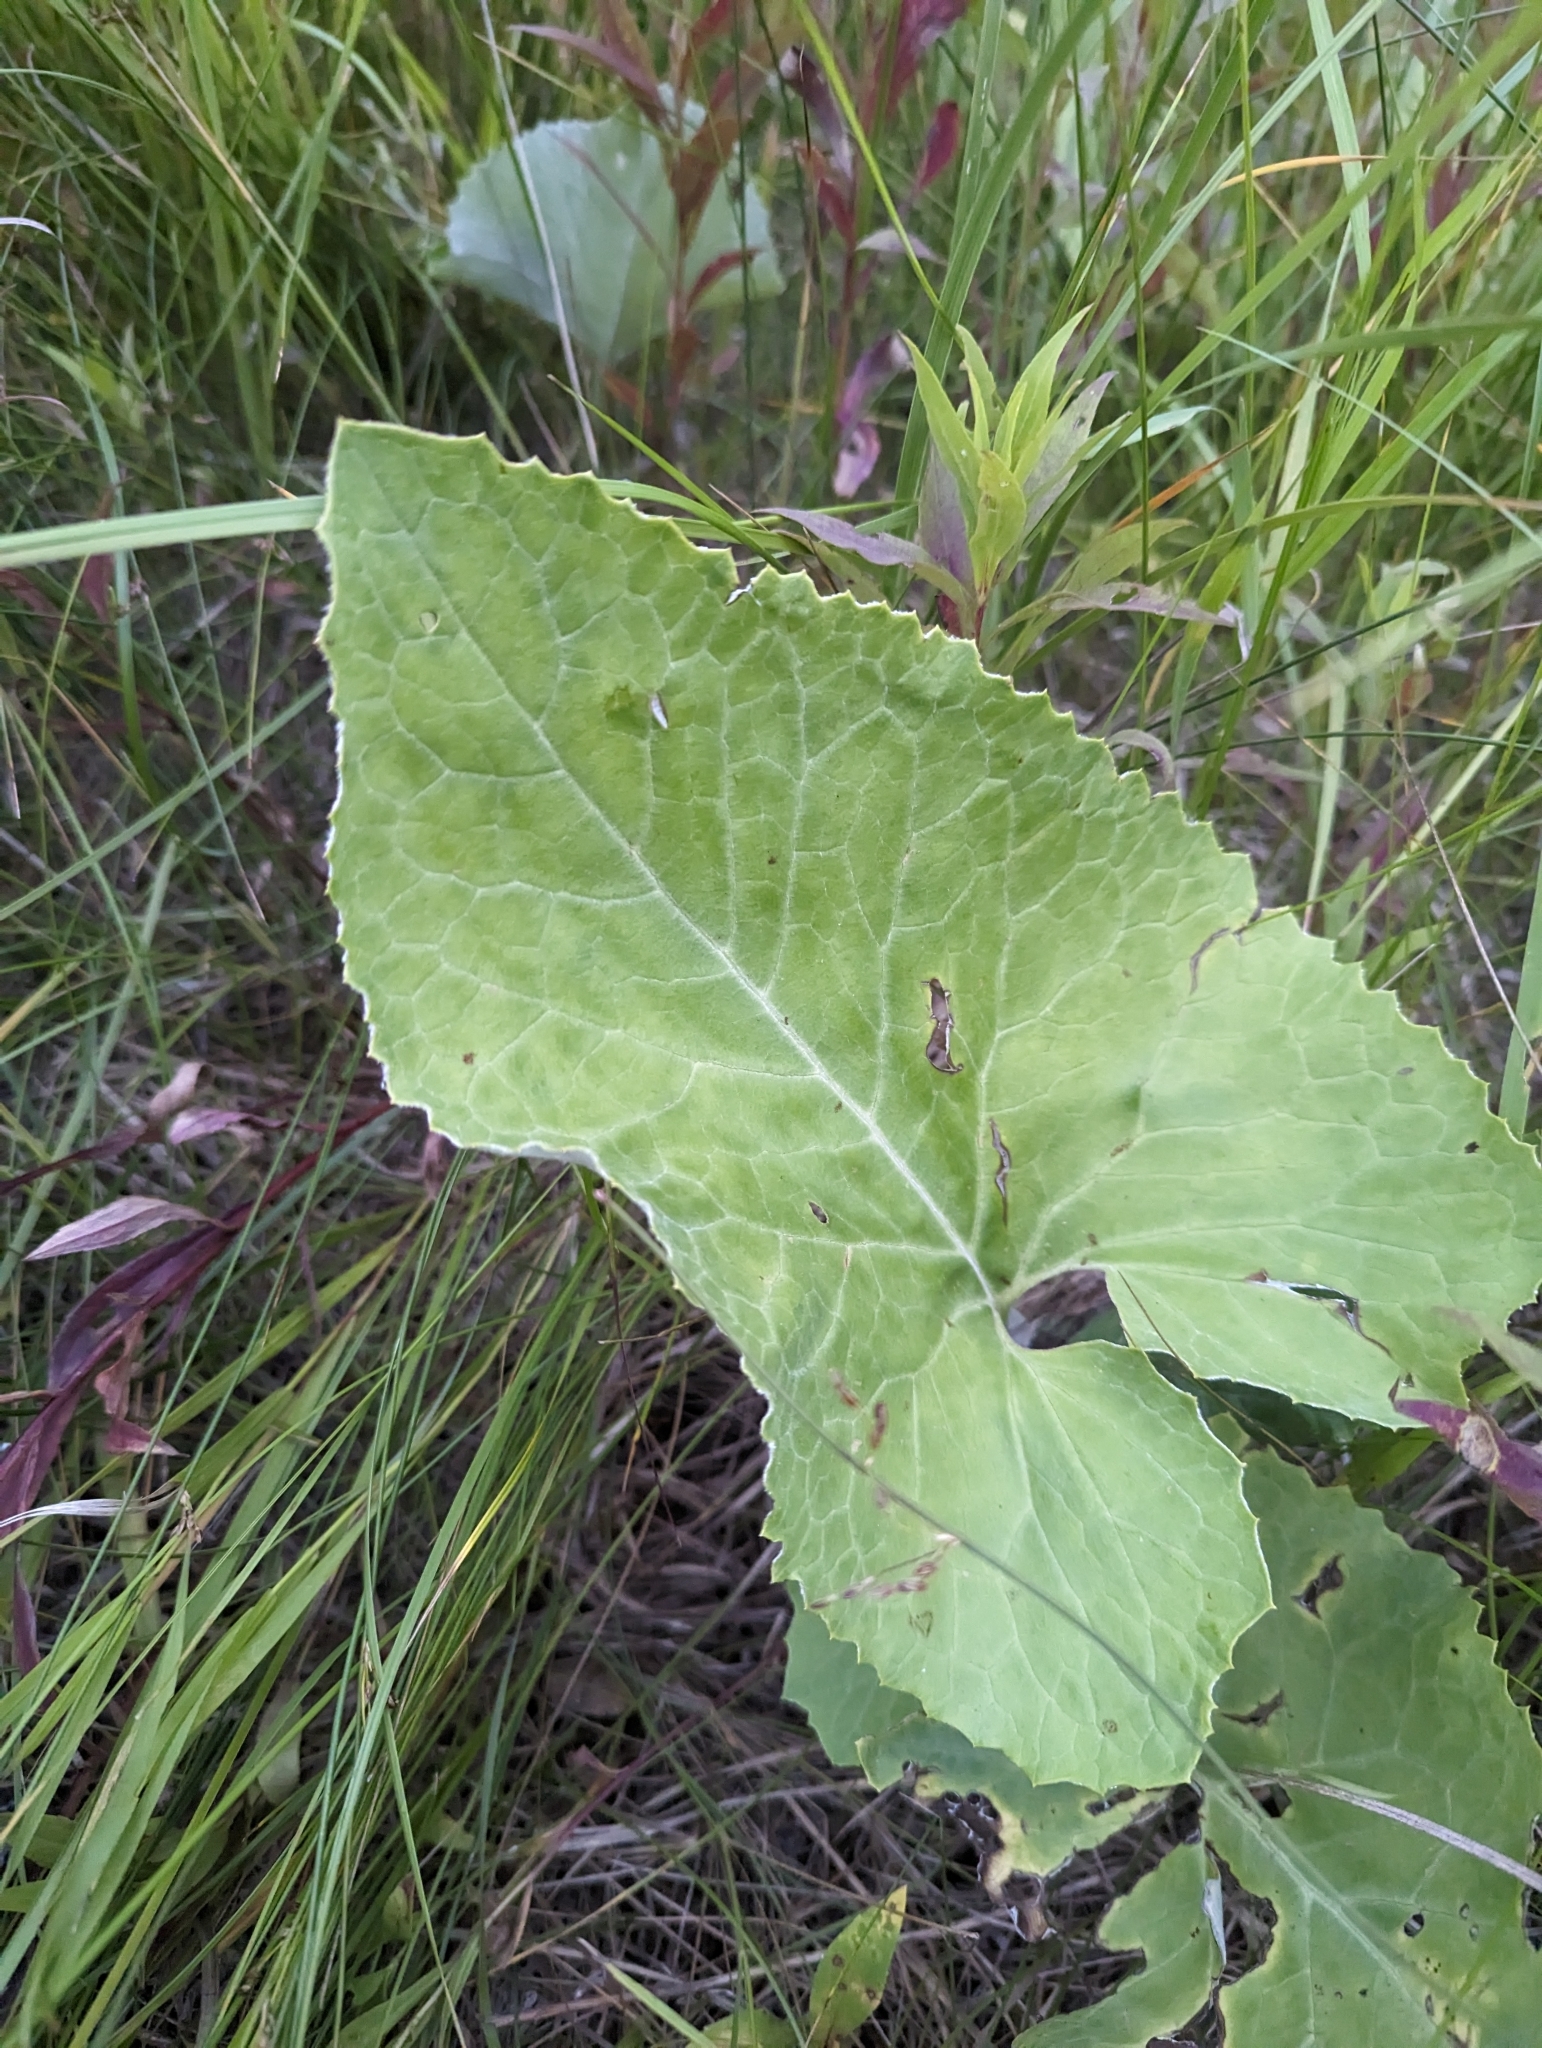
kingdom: Plantae
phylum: Tracheophyta
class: Magnoliopsida
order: Asterales
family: Asteraceae
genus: Petasites
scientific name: Petasites frigidus
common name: Arctic butterbur
